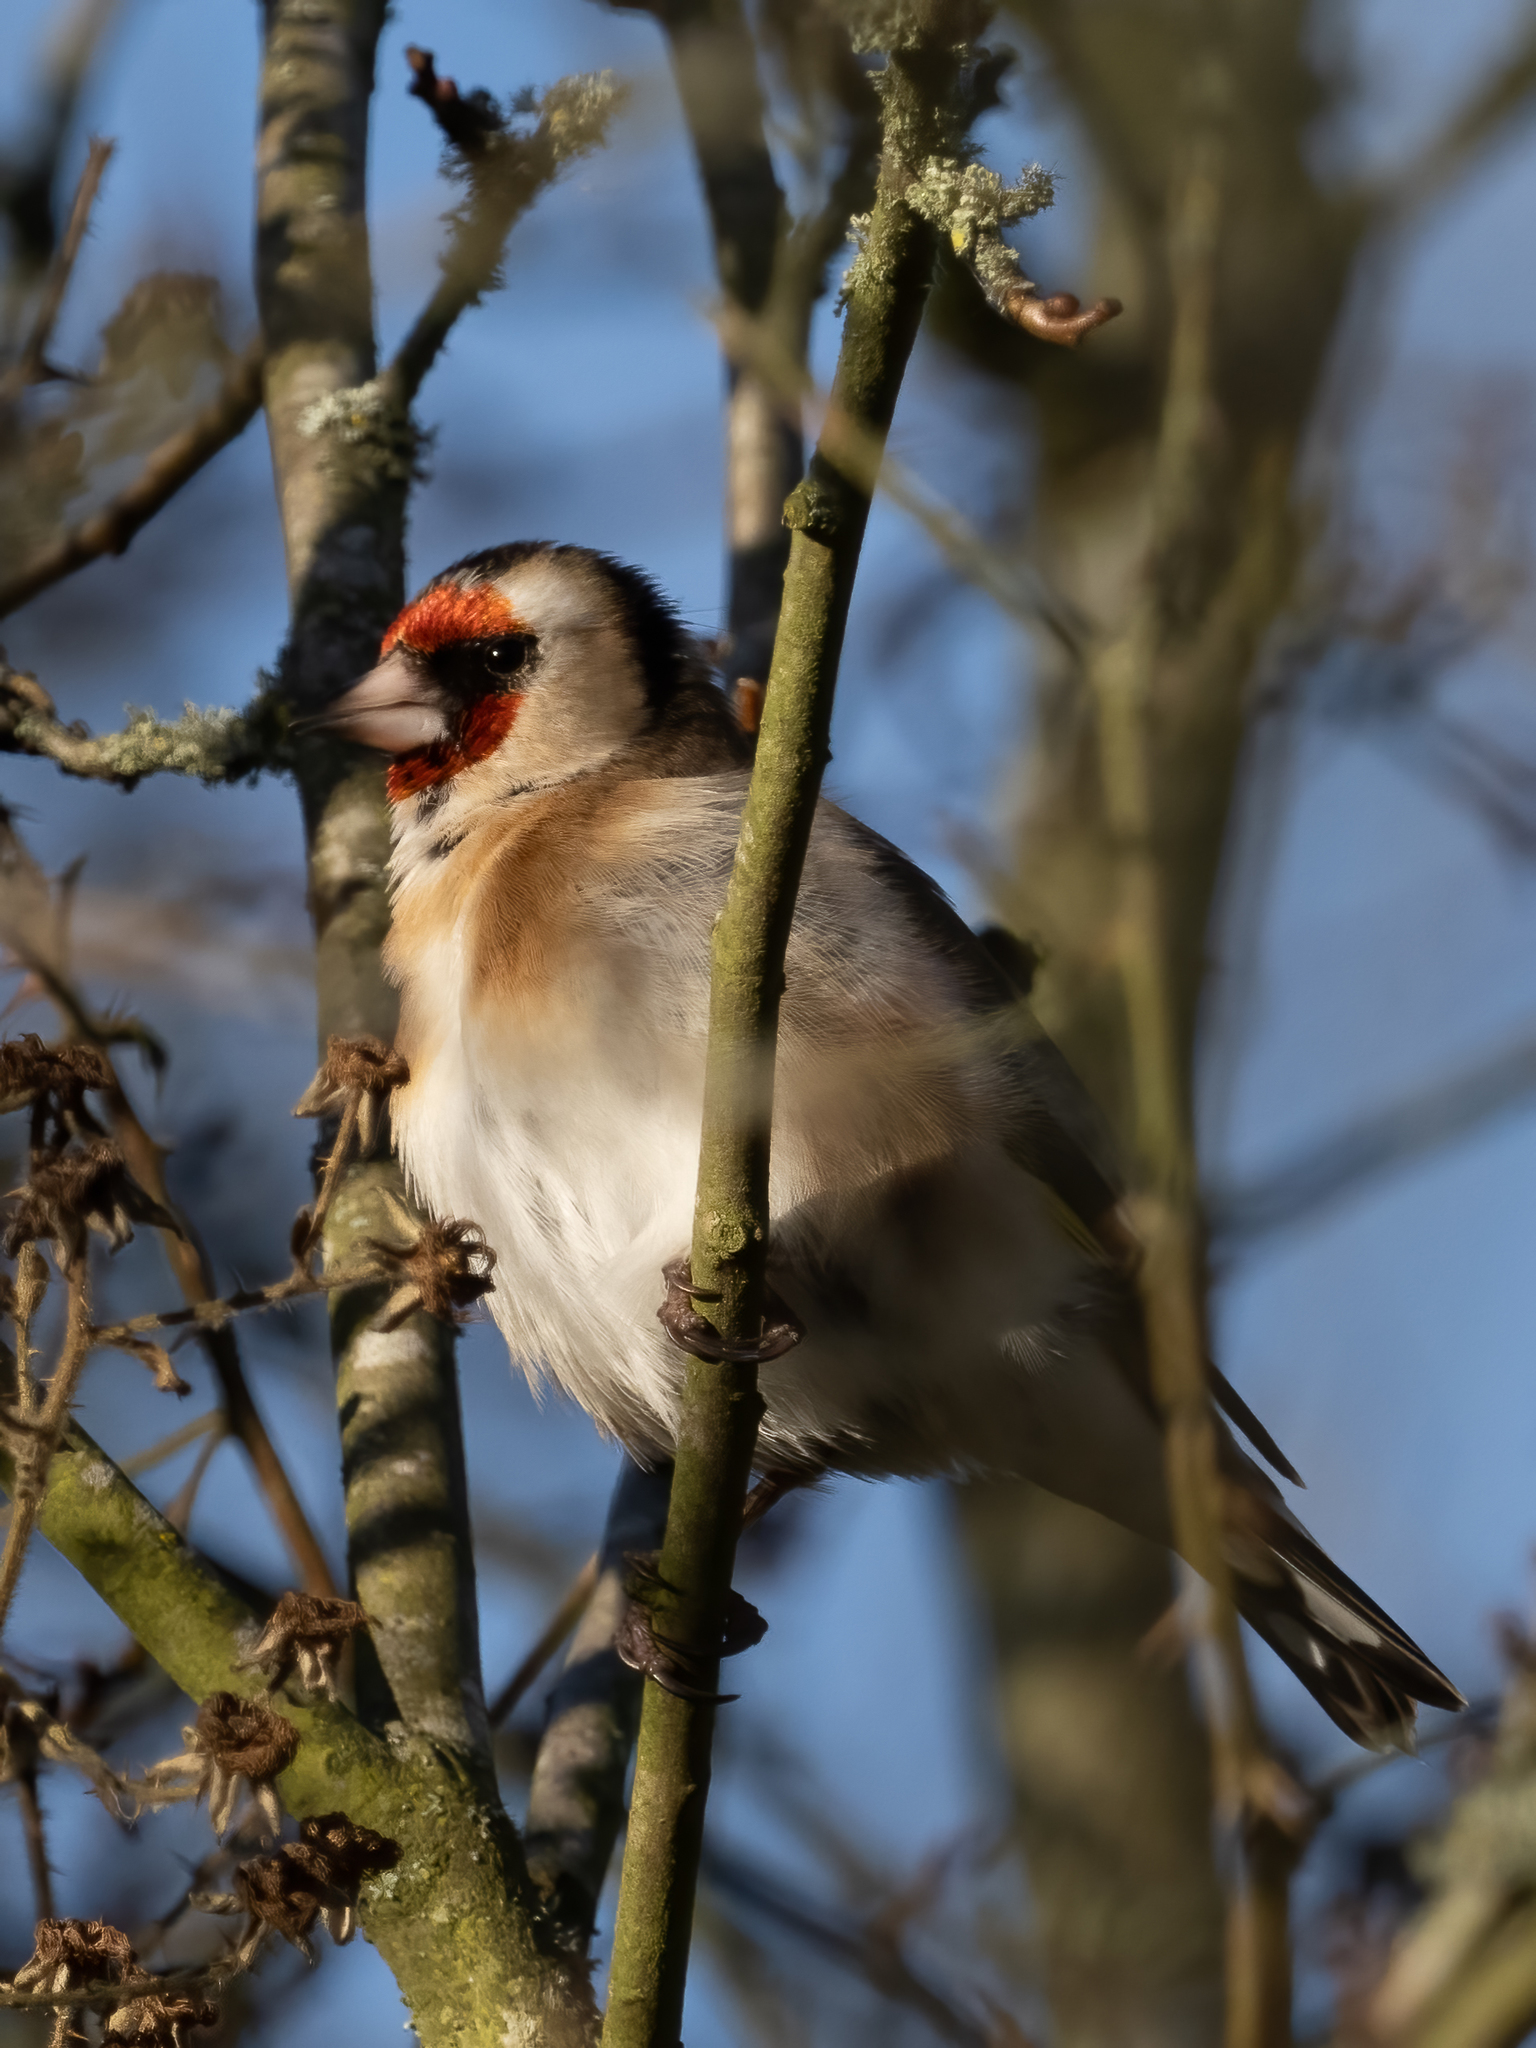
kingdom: Animalia
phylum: Chordata
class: Aves
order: Passeriformes
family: Fringillidae
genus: Carduelis
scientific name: Carduelis carduelis
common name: European goldfinch
